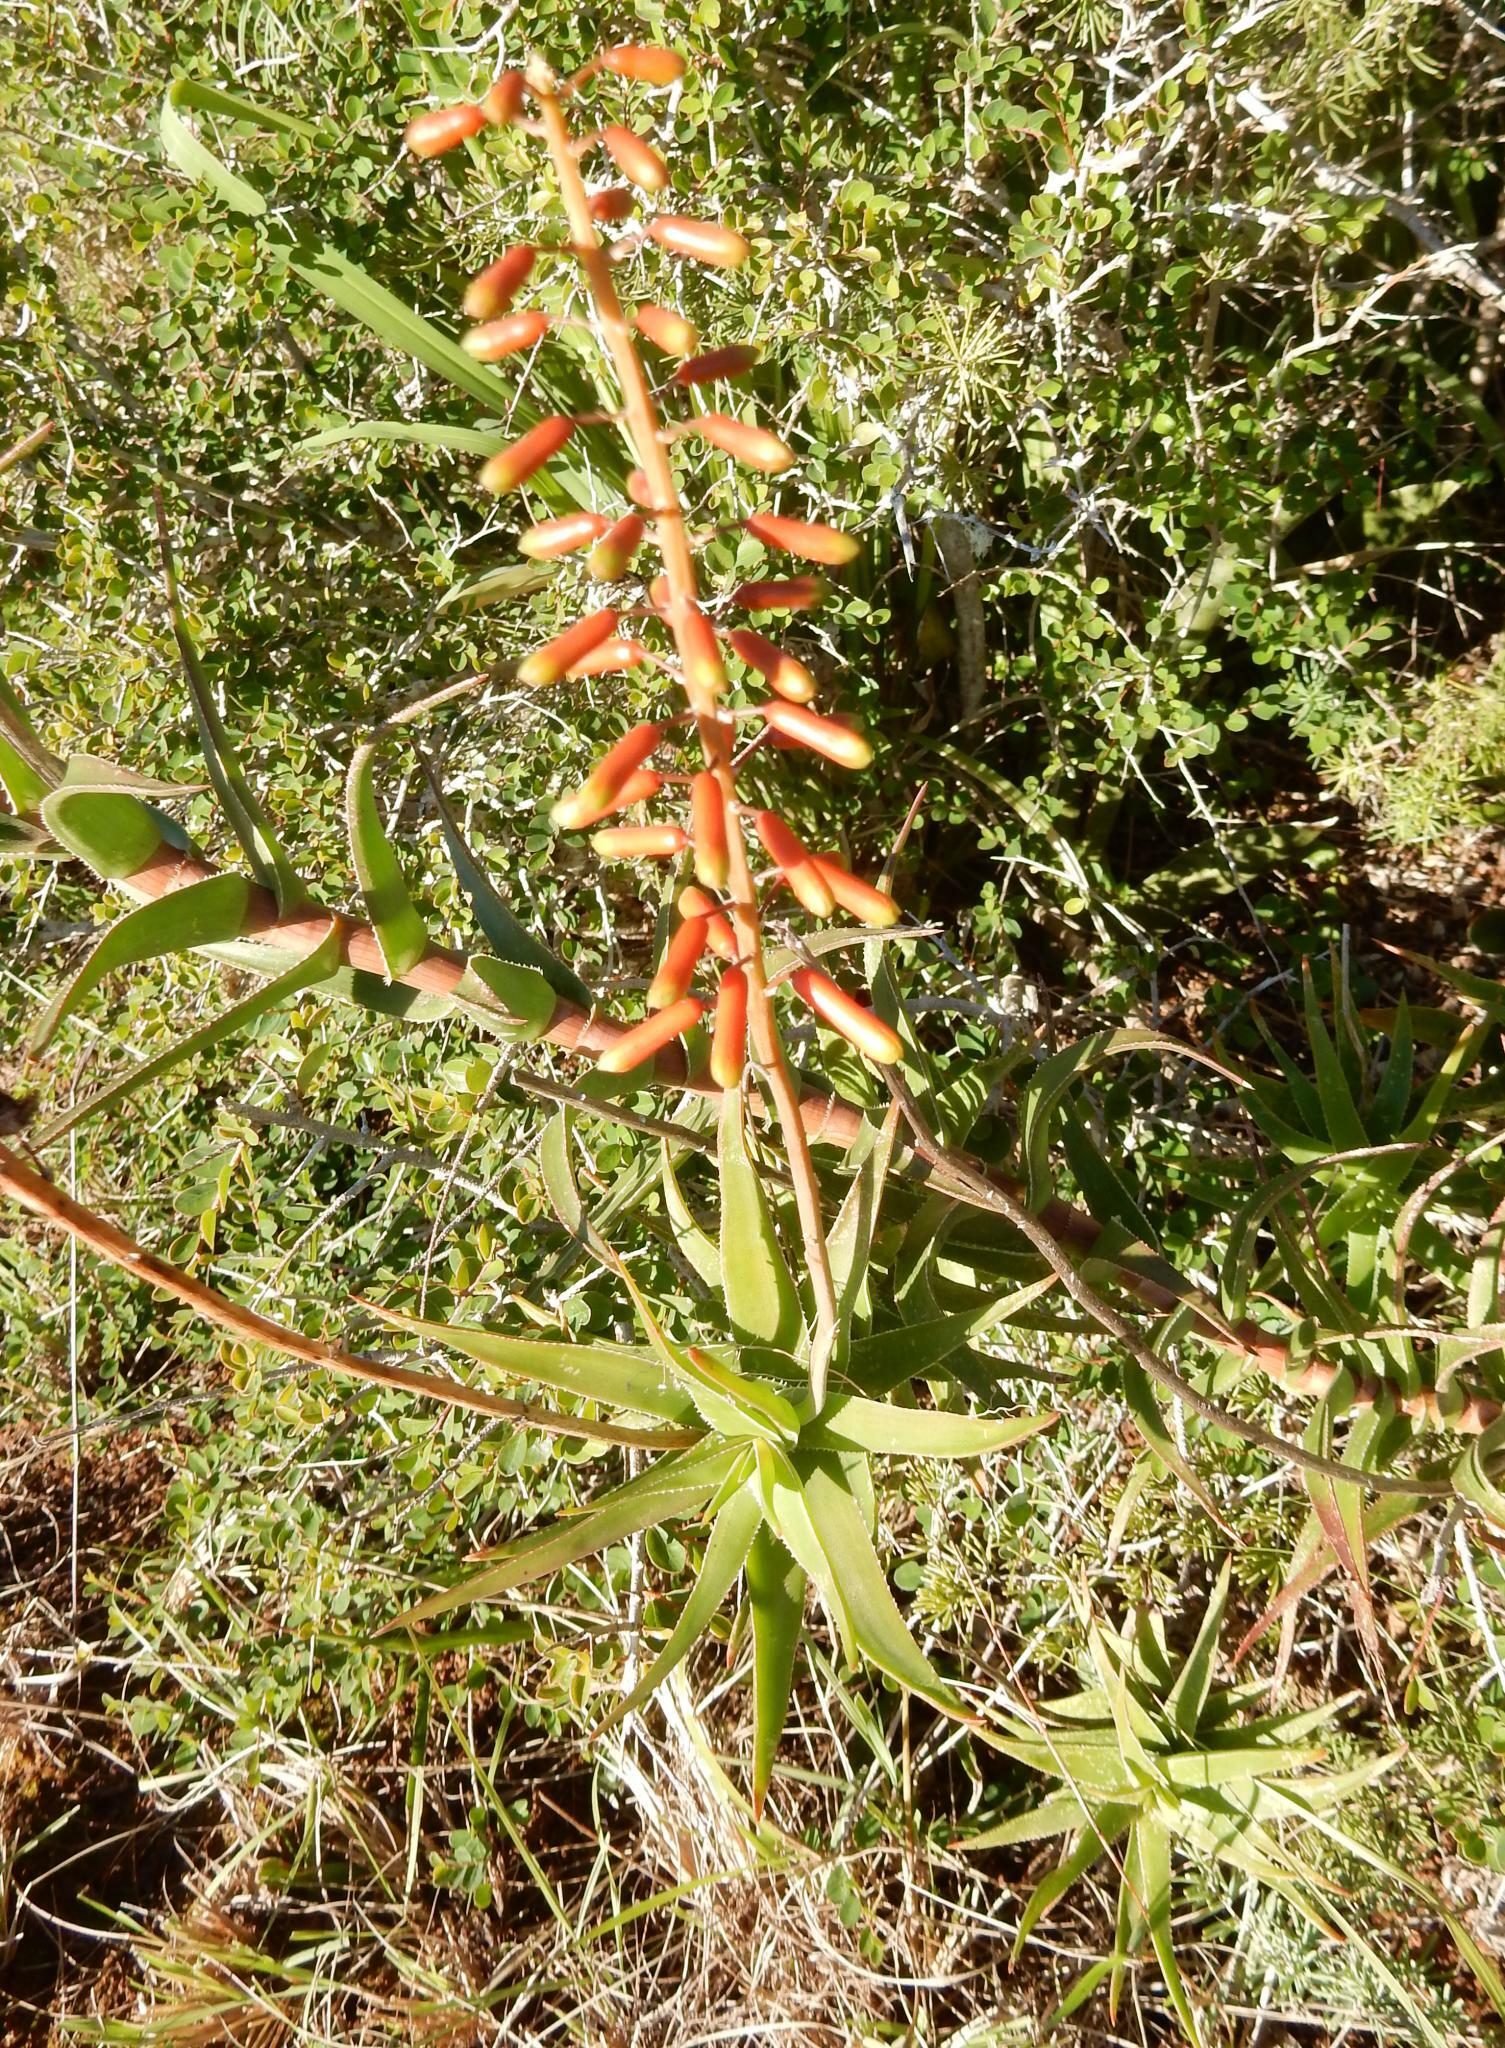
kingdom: Plantae
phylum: Tracheophyta
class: Liliopsida
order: Asparagales
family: Asphodelaceae
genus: Aloiampelos
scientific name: Aloiampelos ciliaris
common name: Climbing aloe
